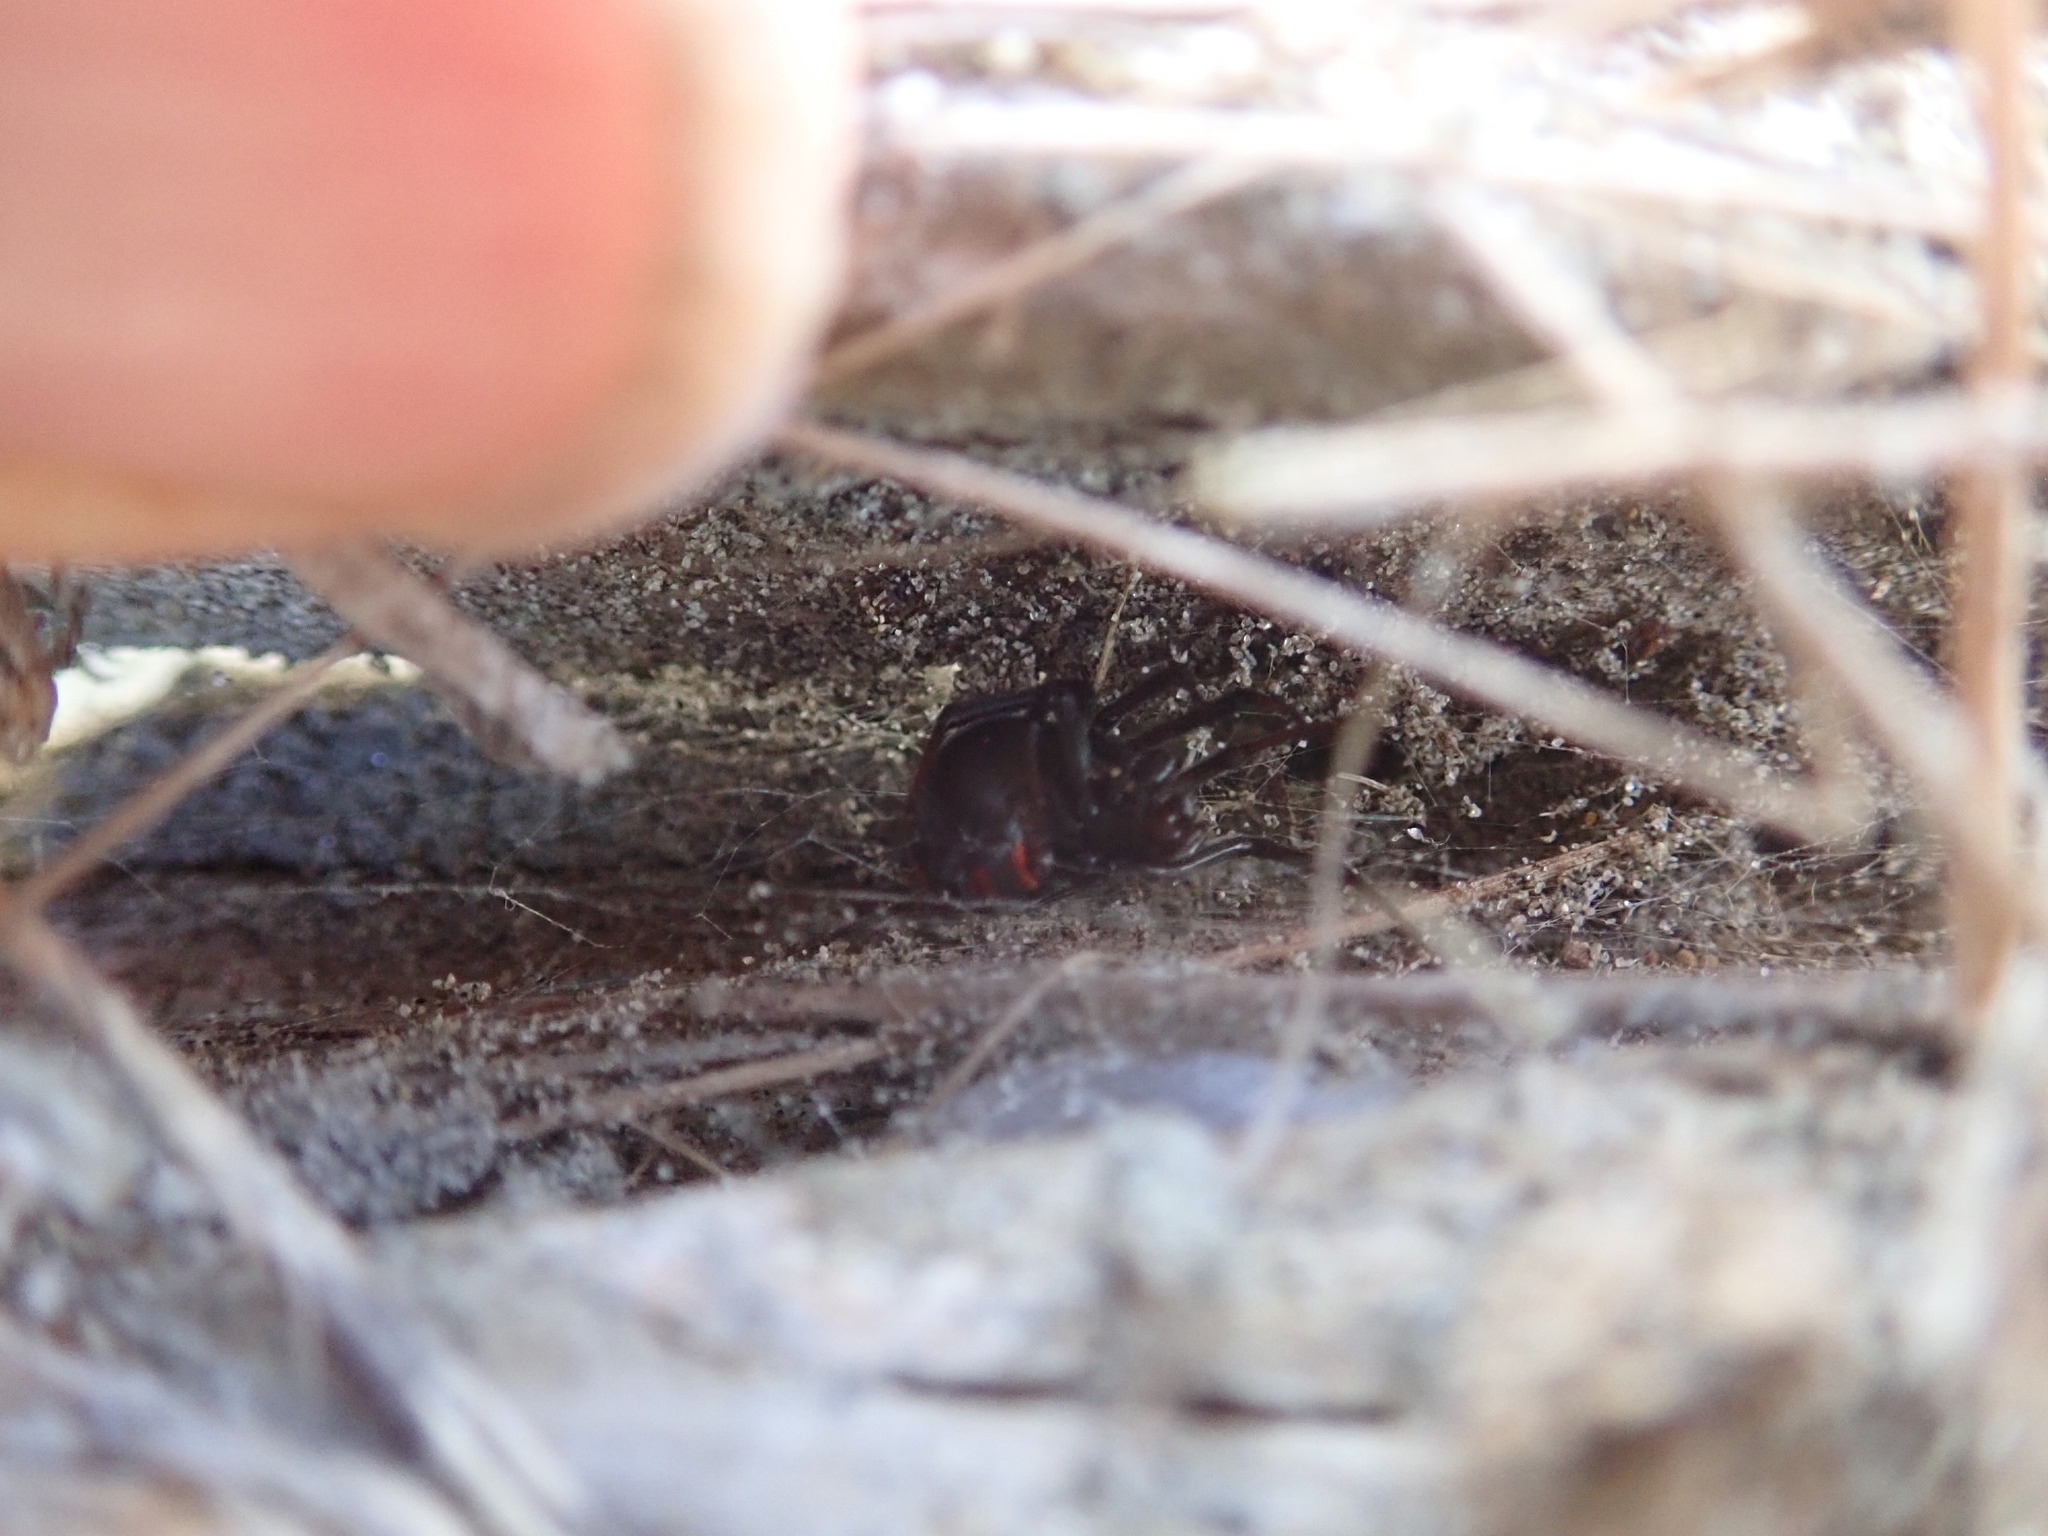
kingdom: Animalia
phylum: Arthropoda
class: Arachnida
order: Araneae
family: Theridiidae
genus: Latrodectus
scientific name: Latrodectus katipo
